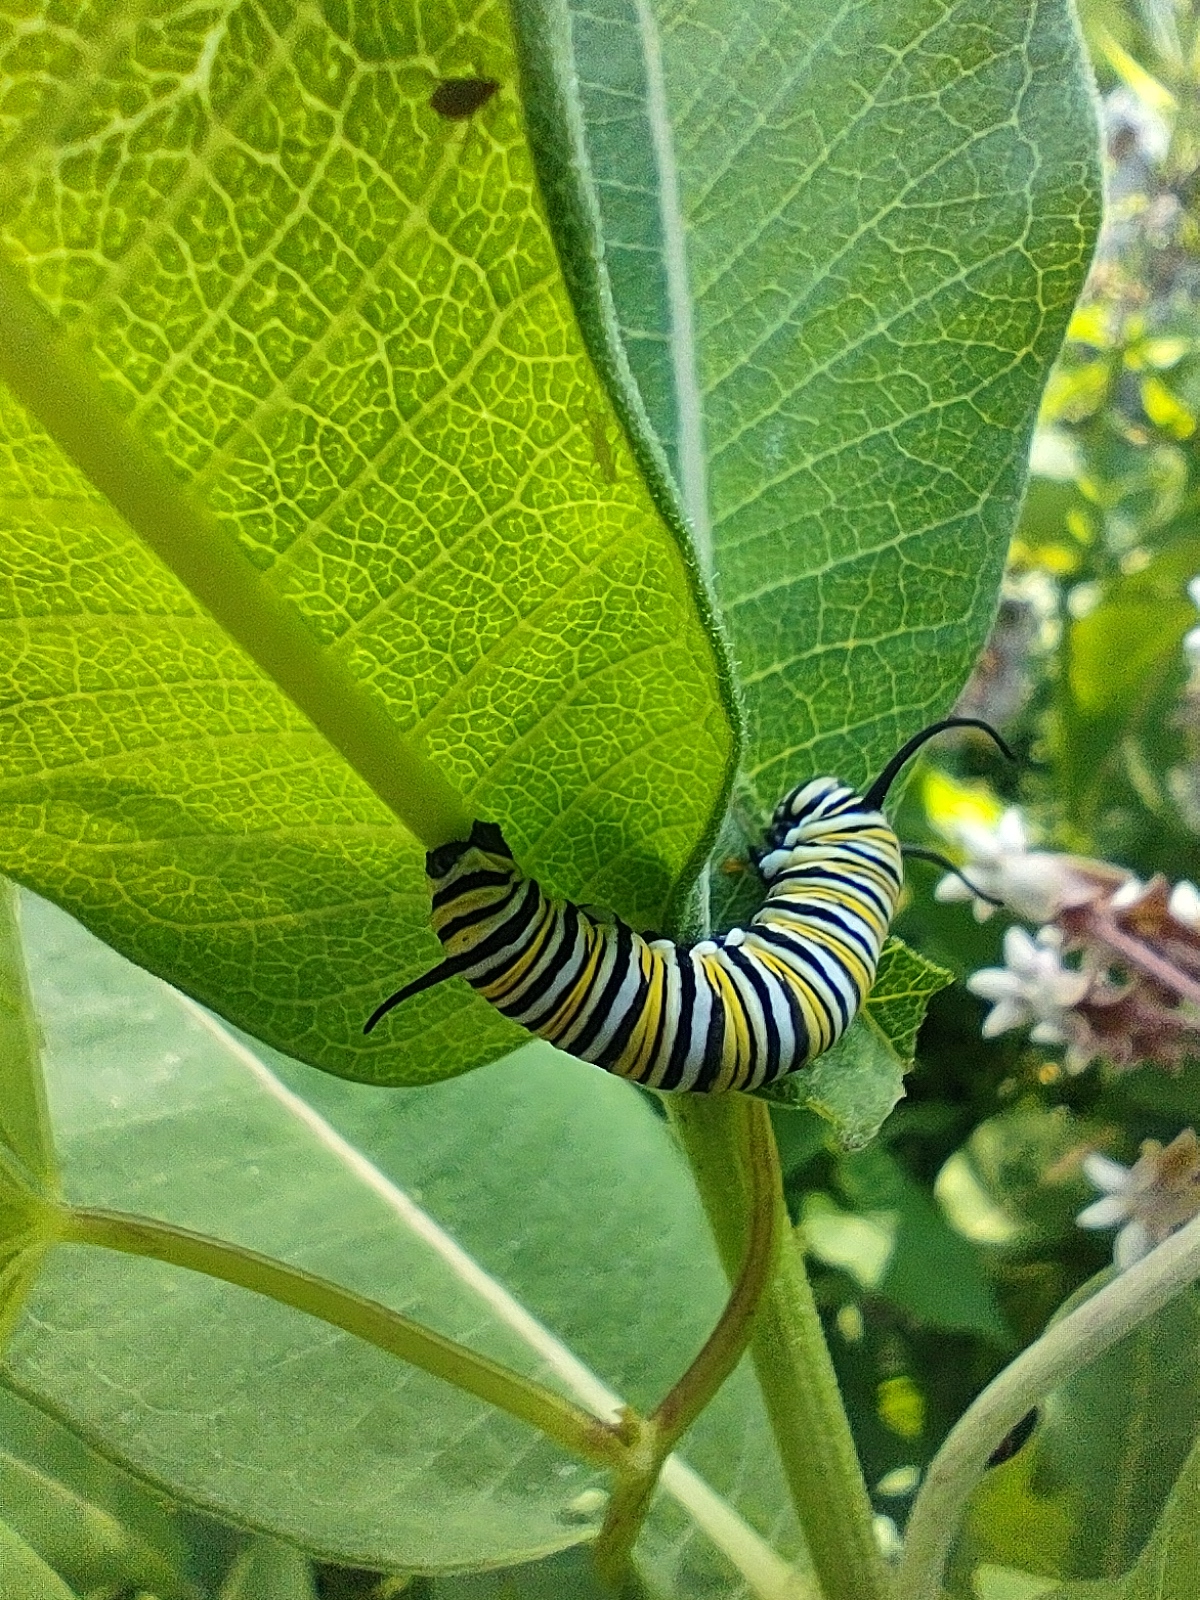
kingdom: Animalia
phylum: Arthropoda
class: Insecta
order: Lepidoptera
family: Nymphalidae
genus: Danaus
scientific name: Danaus plexippus
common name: Monarch
